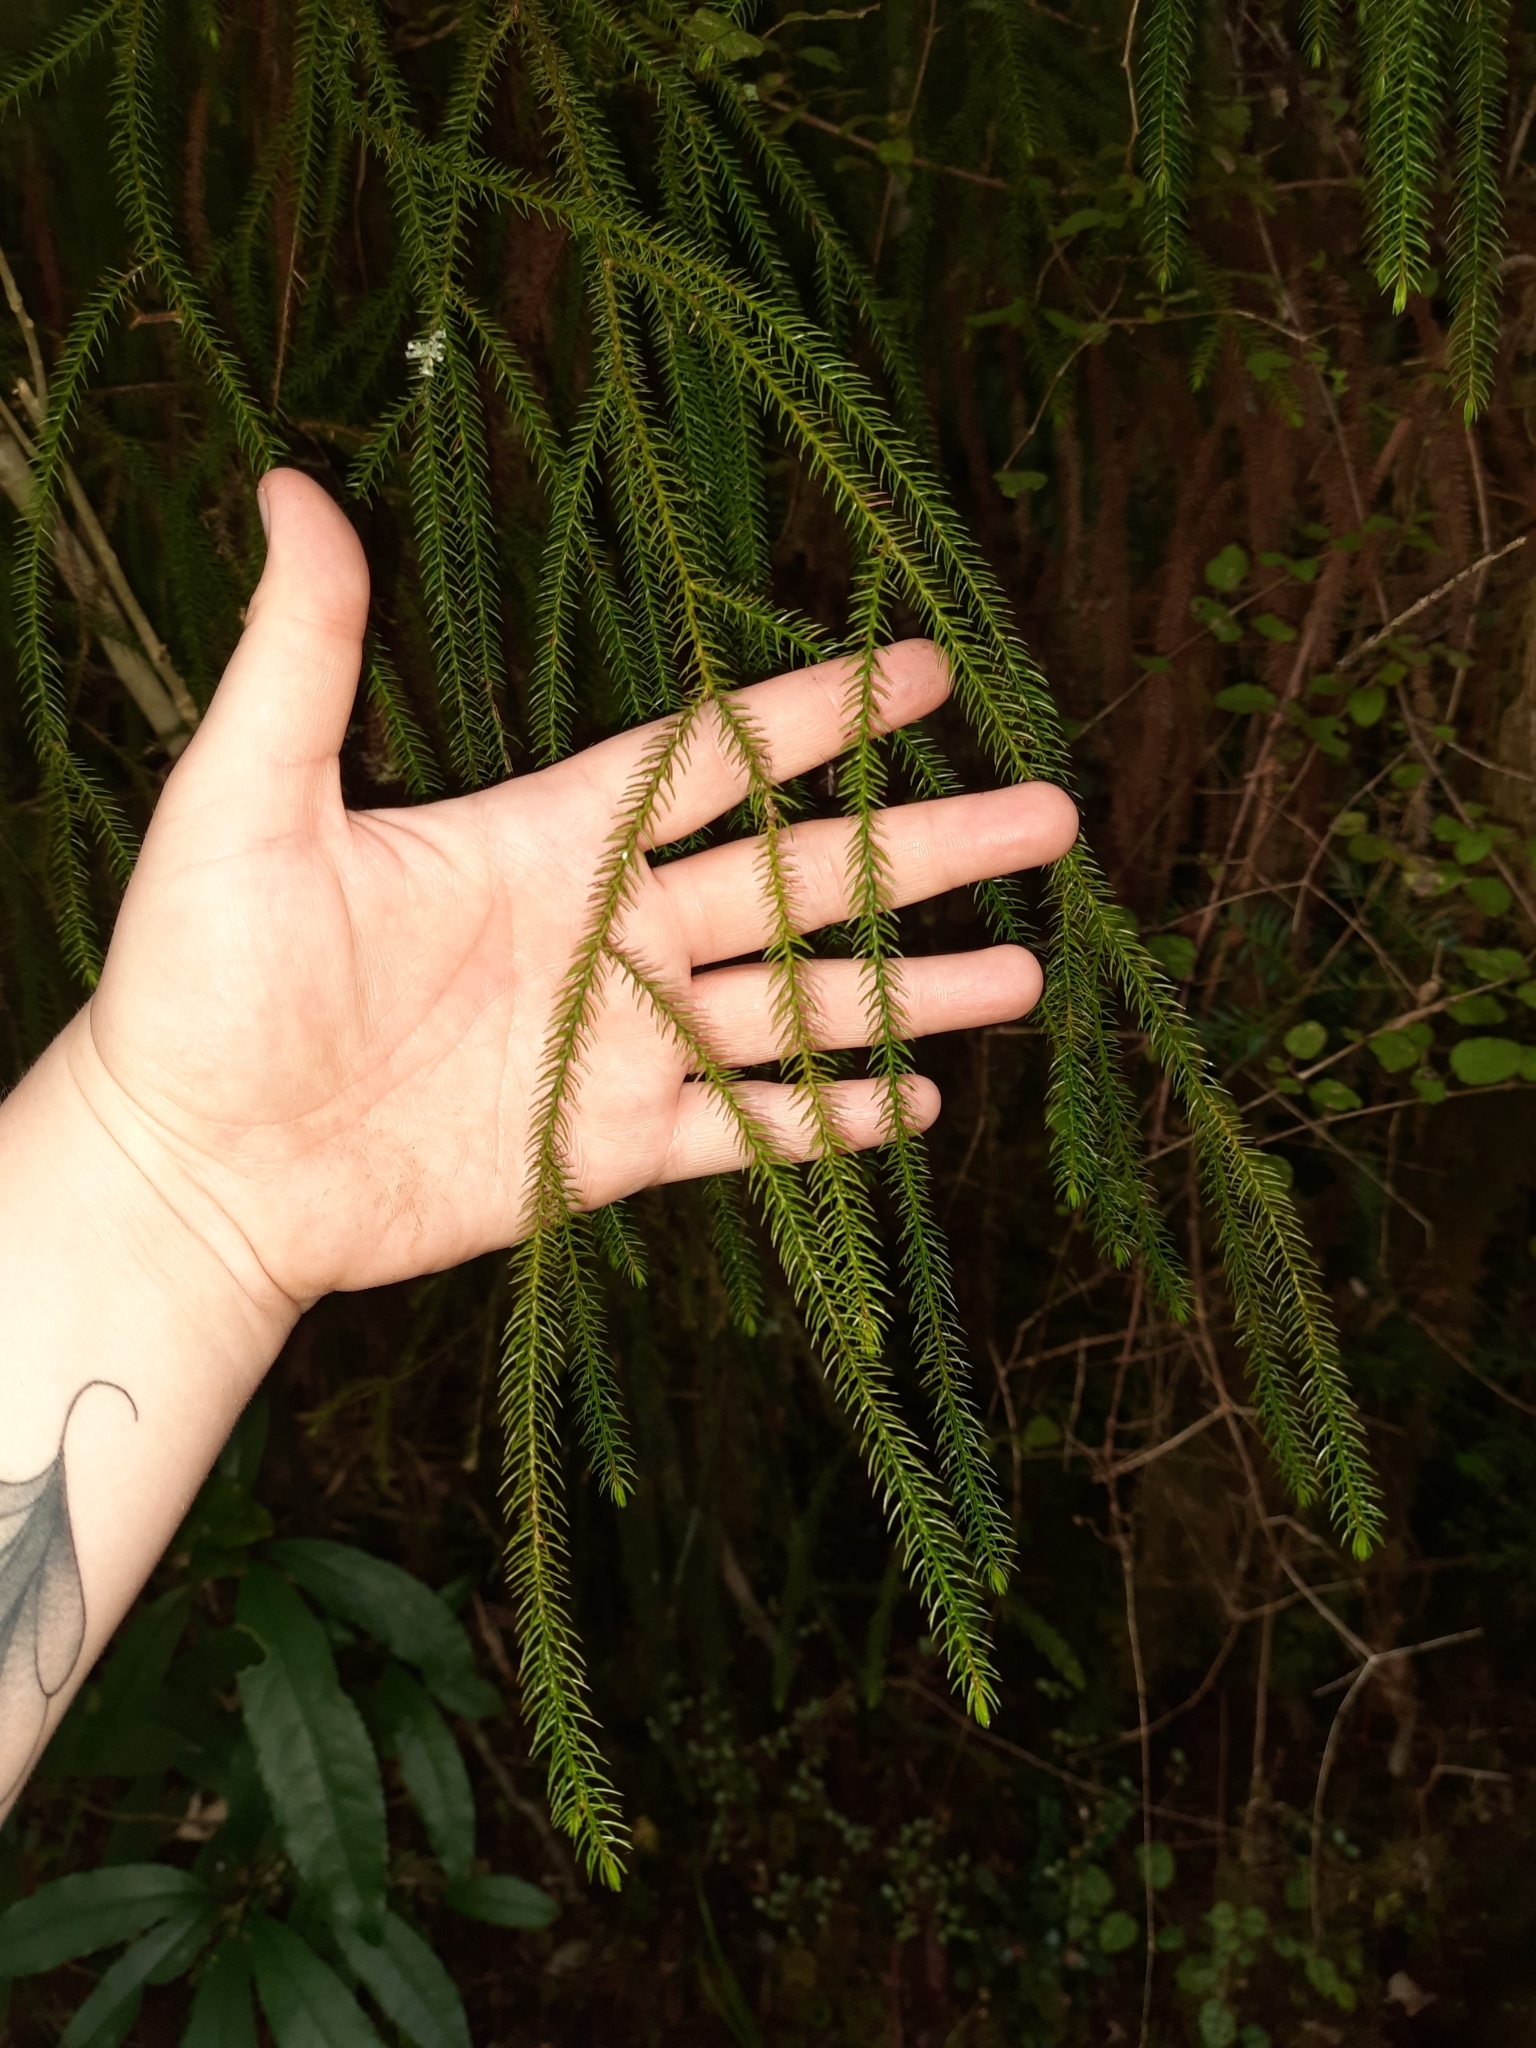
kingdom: Plantae
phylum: Tracheophyta
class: Pinopsida
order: Pinales
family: Podocarpaceae
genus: Dacrydium
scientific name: Dacrydium cupressinum
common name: Red pine
